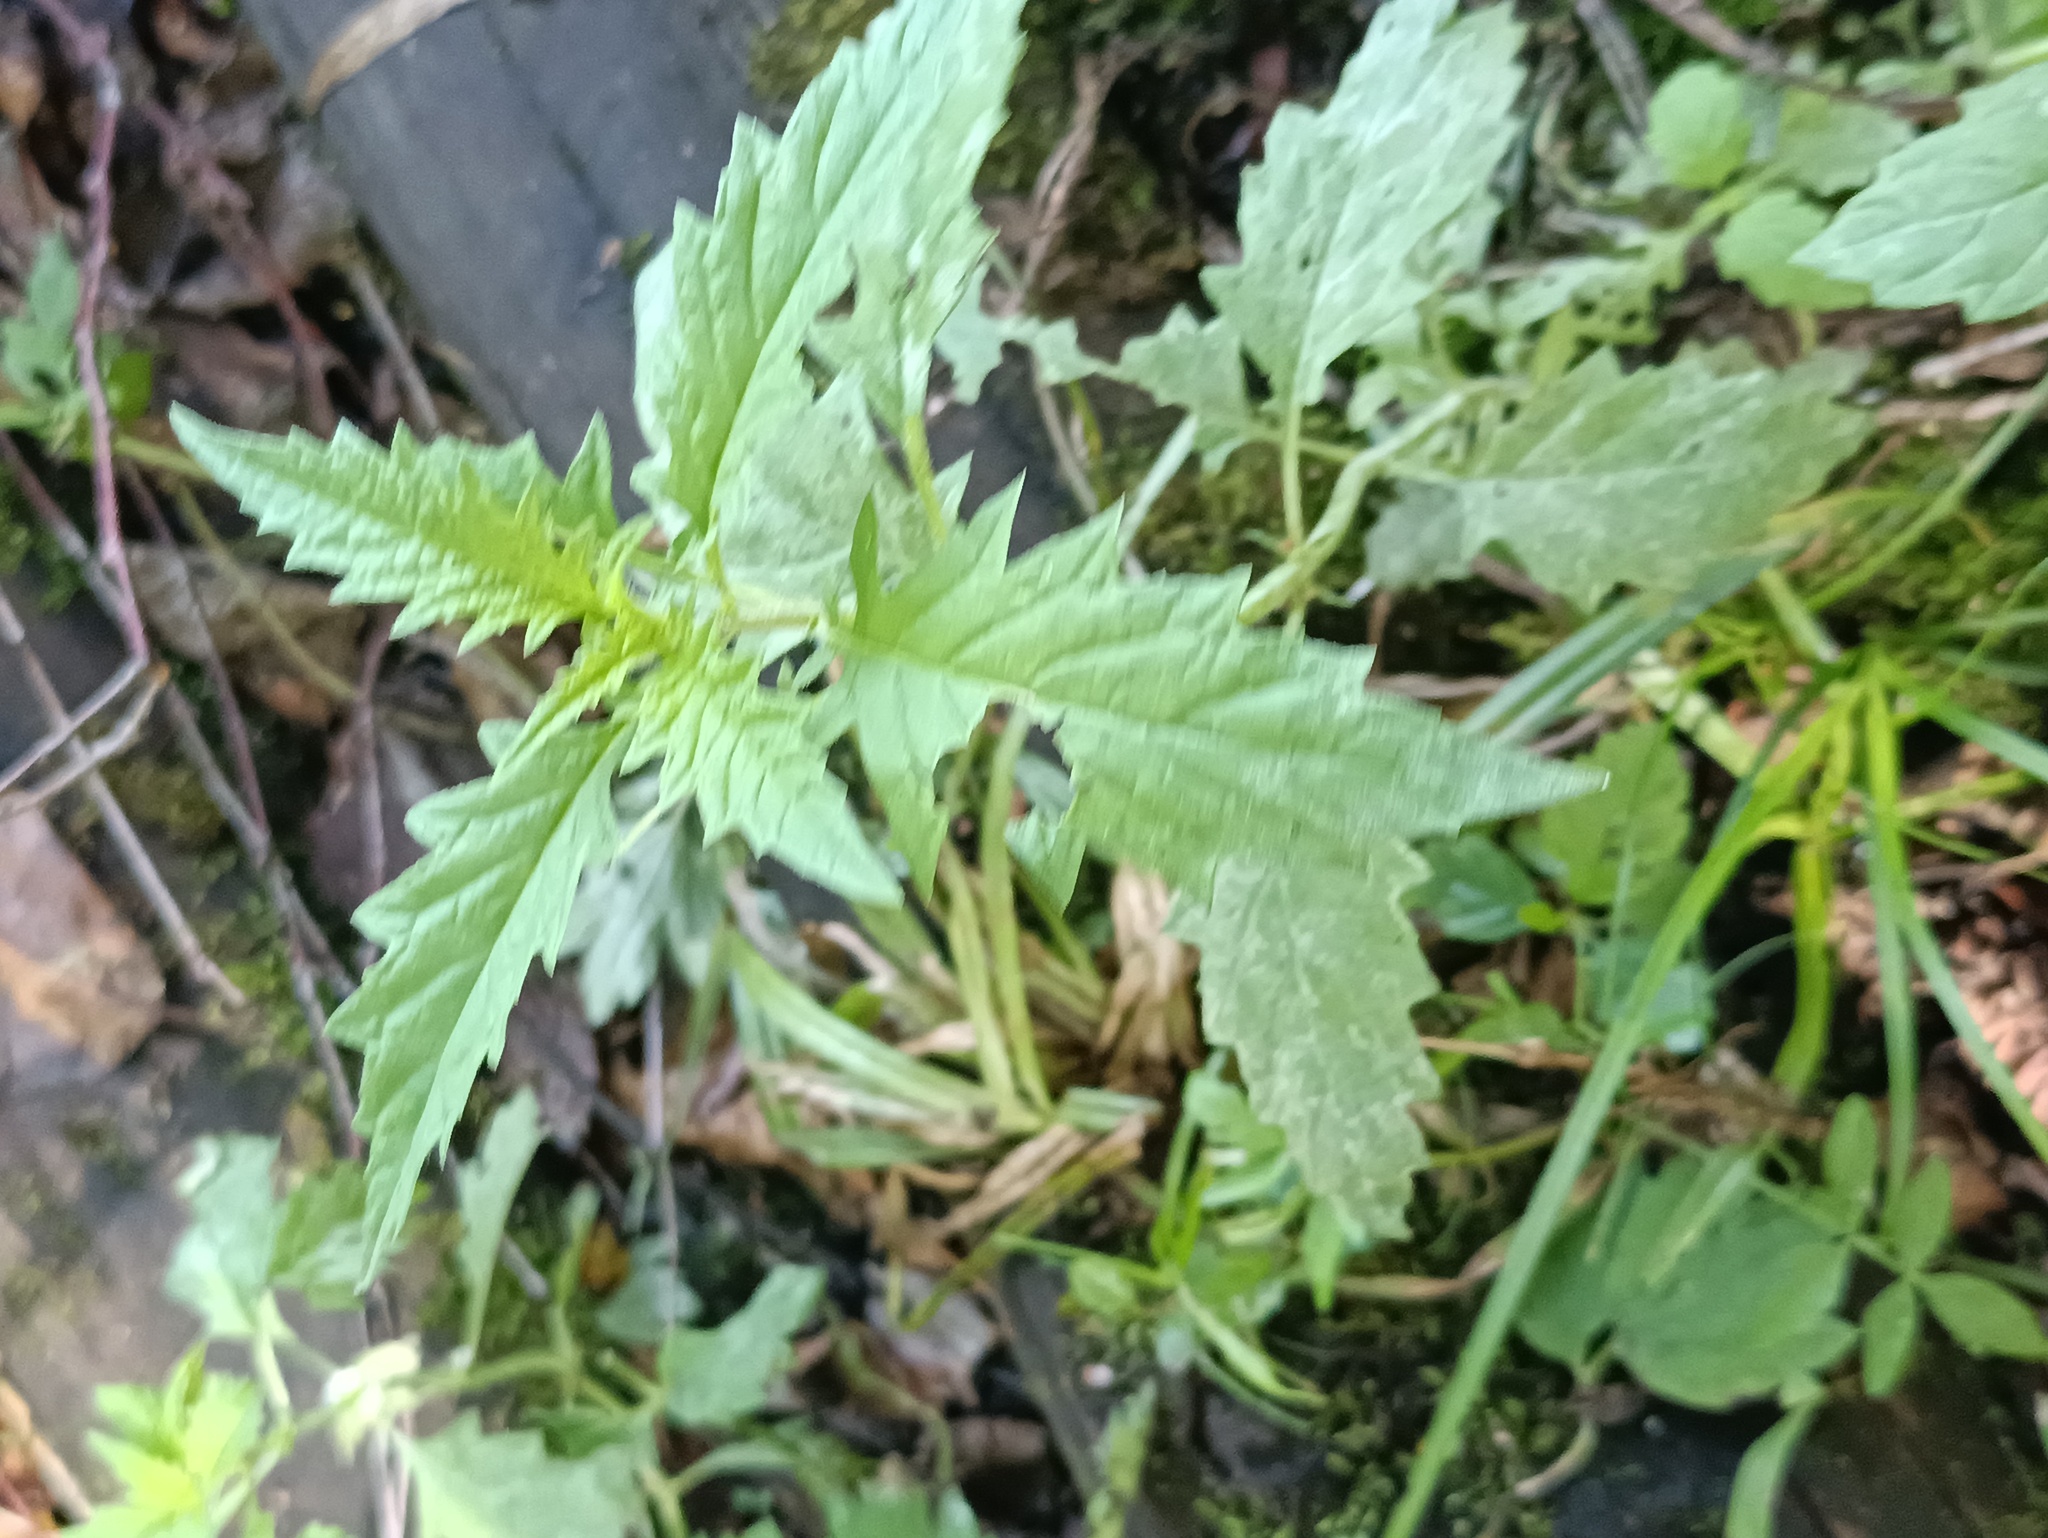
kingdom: Plantae
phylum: Tracheophyta
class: Magnoliopsida
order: Lamiales
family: Lamiaceae
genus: Lycopus
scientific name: Lycopus europaeus
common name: European bugleweed
